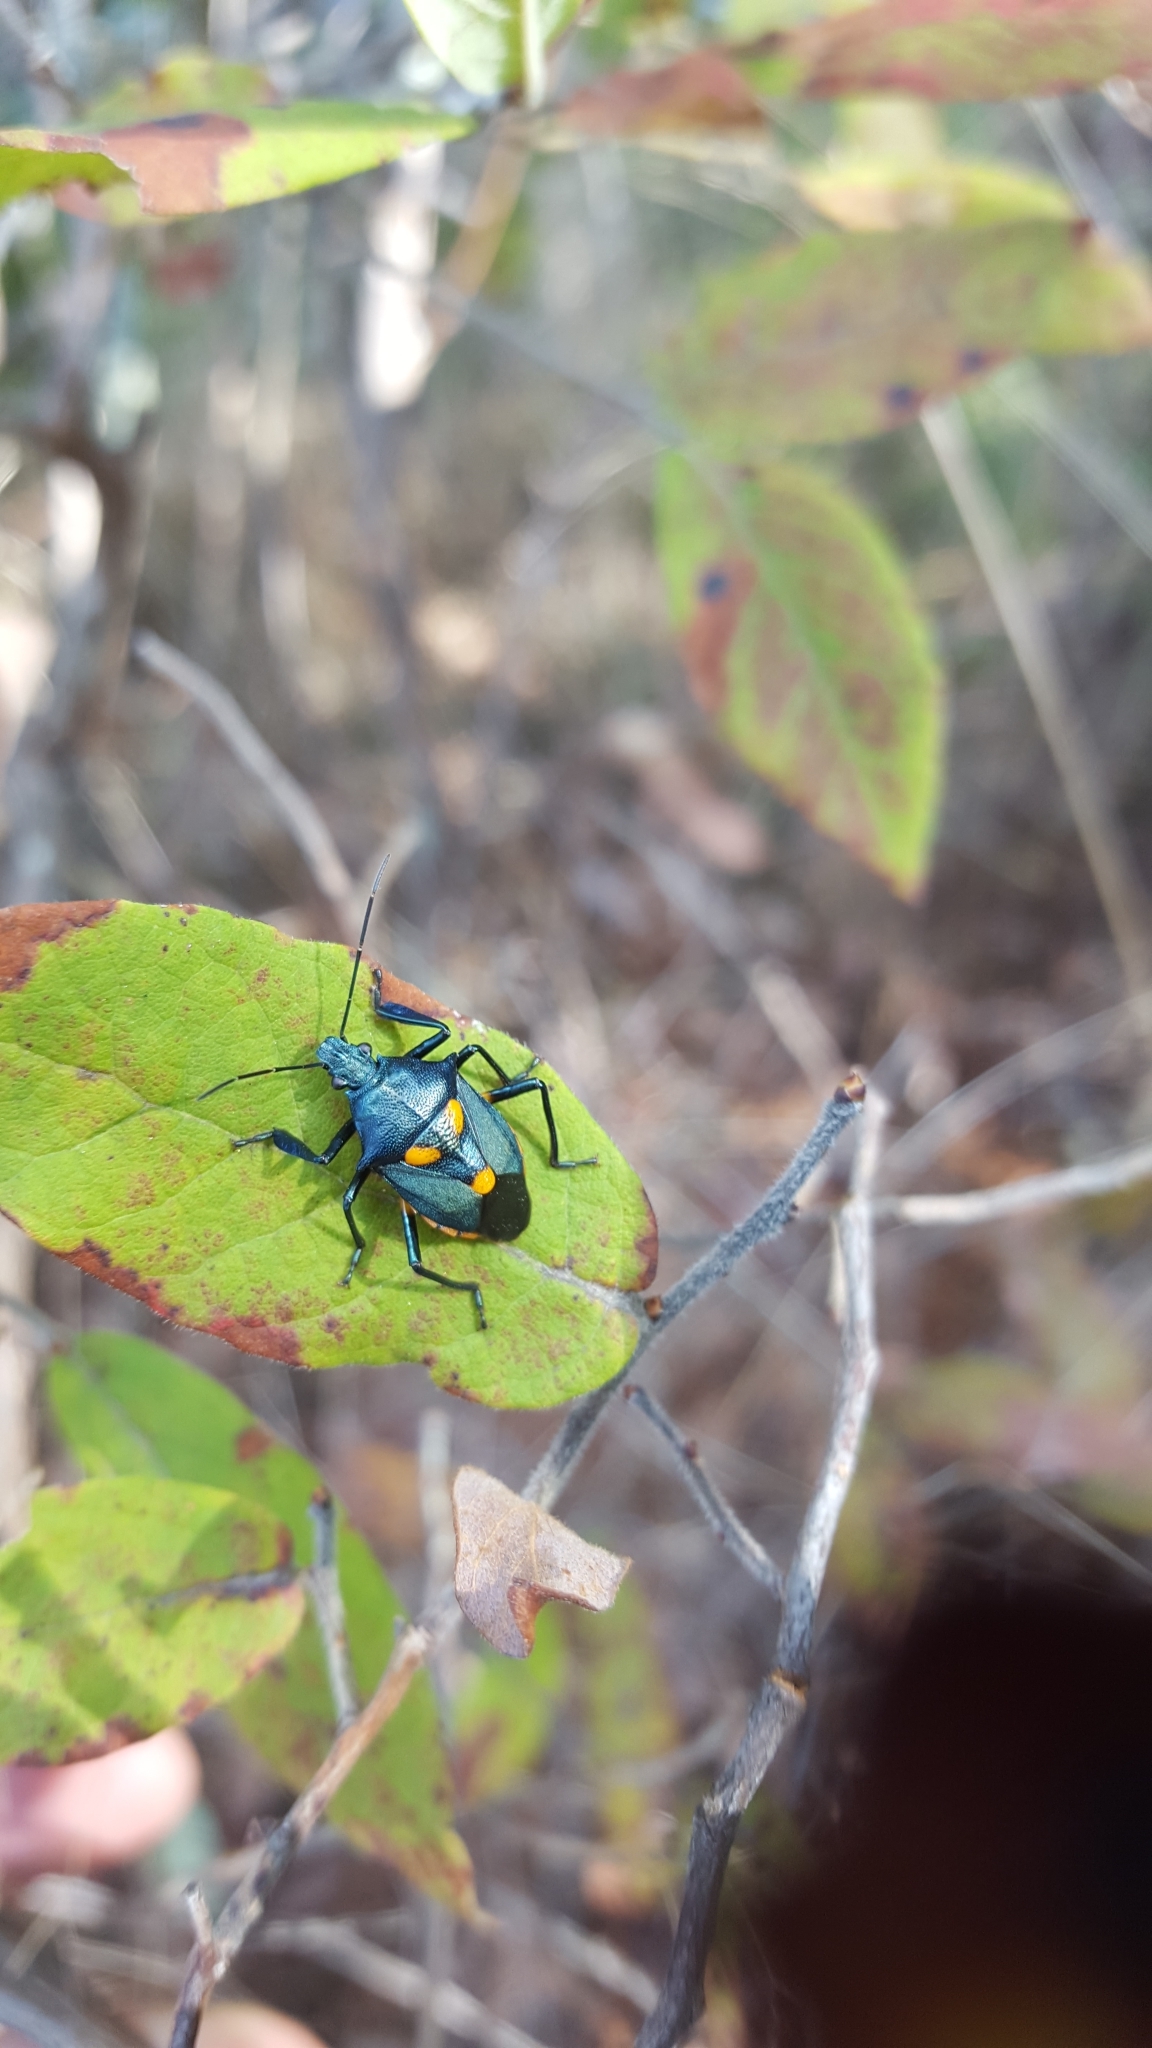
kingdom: Animalia
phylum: Arthropoda
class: Insecta
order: Hemiptera
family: Pentatomidae
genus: Euthyrhynchus
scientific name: Euthyrhynchus floridanus
